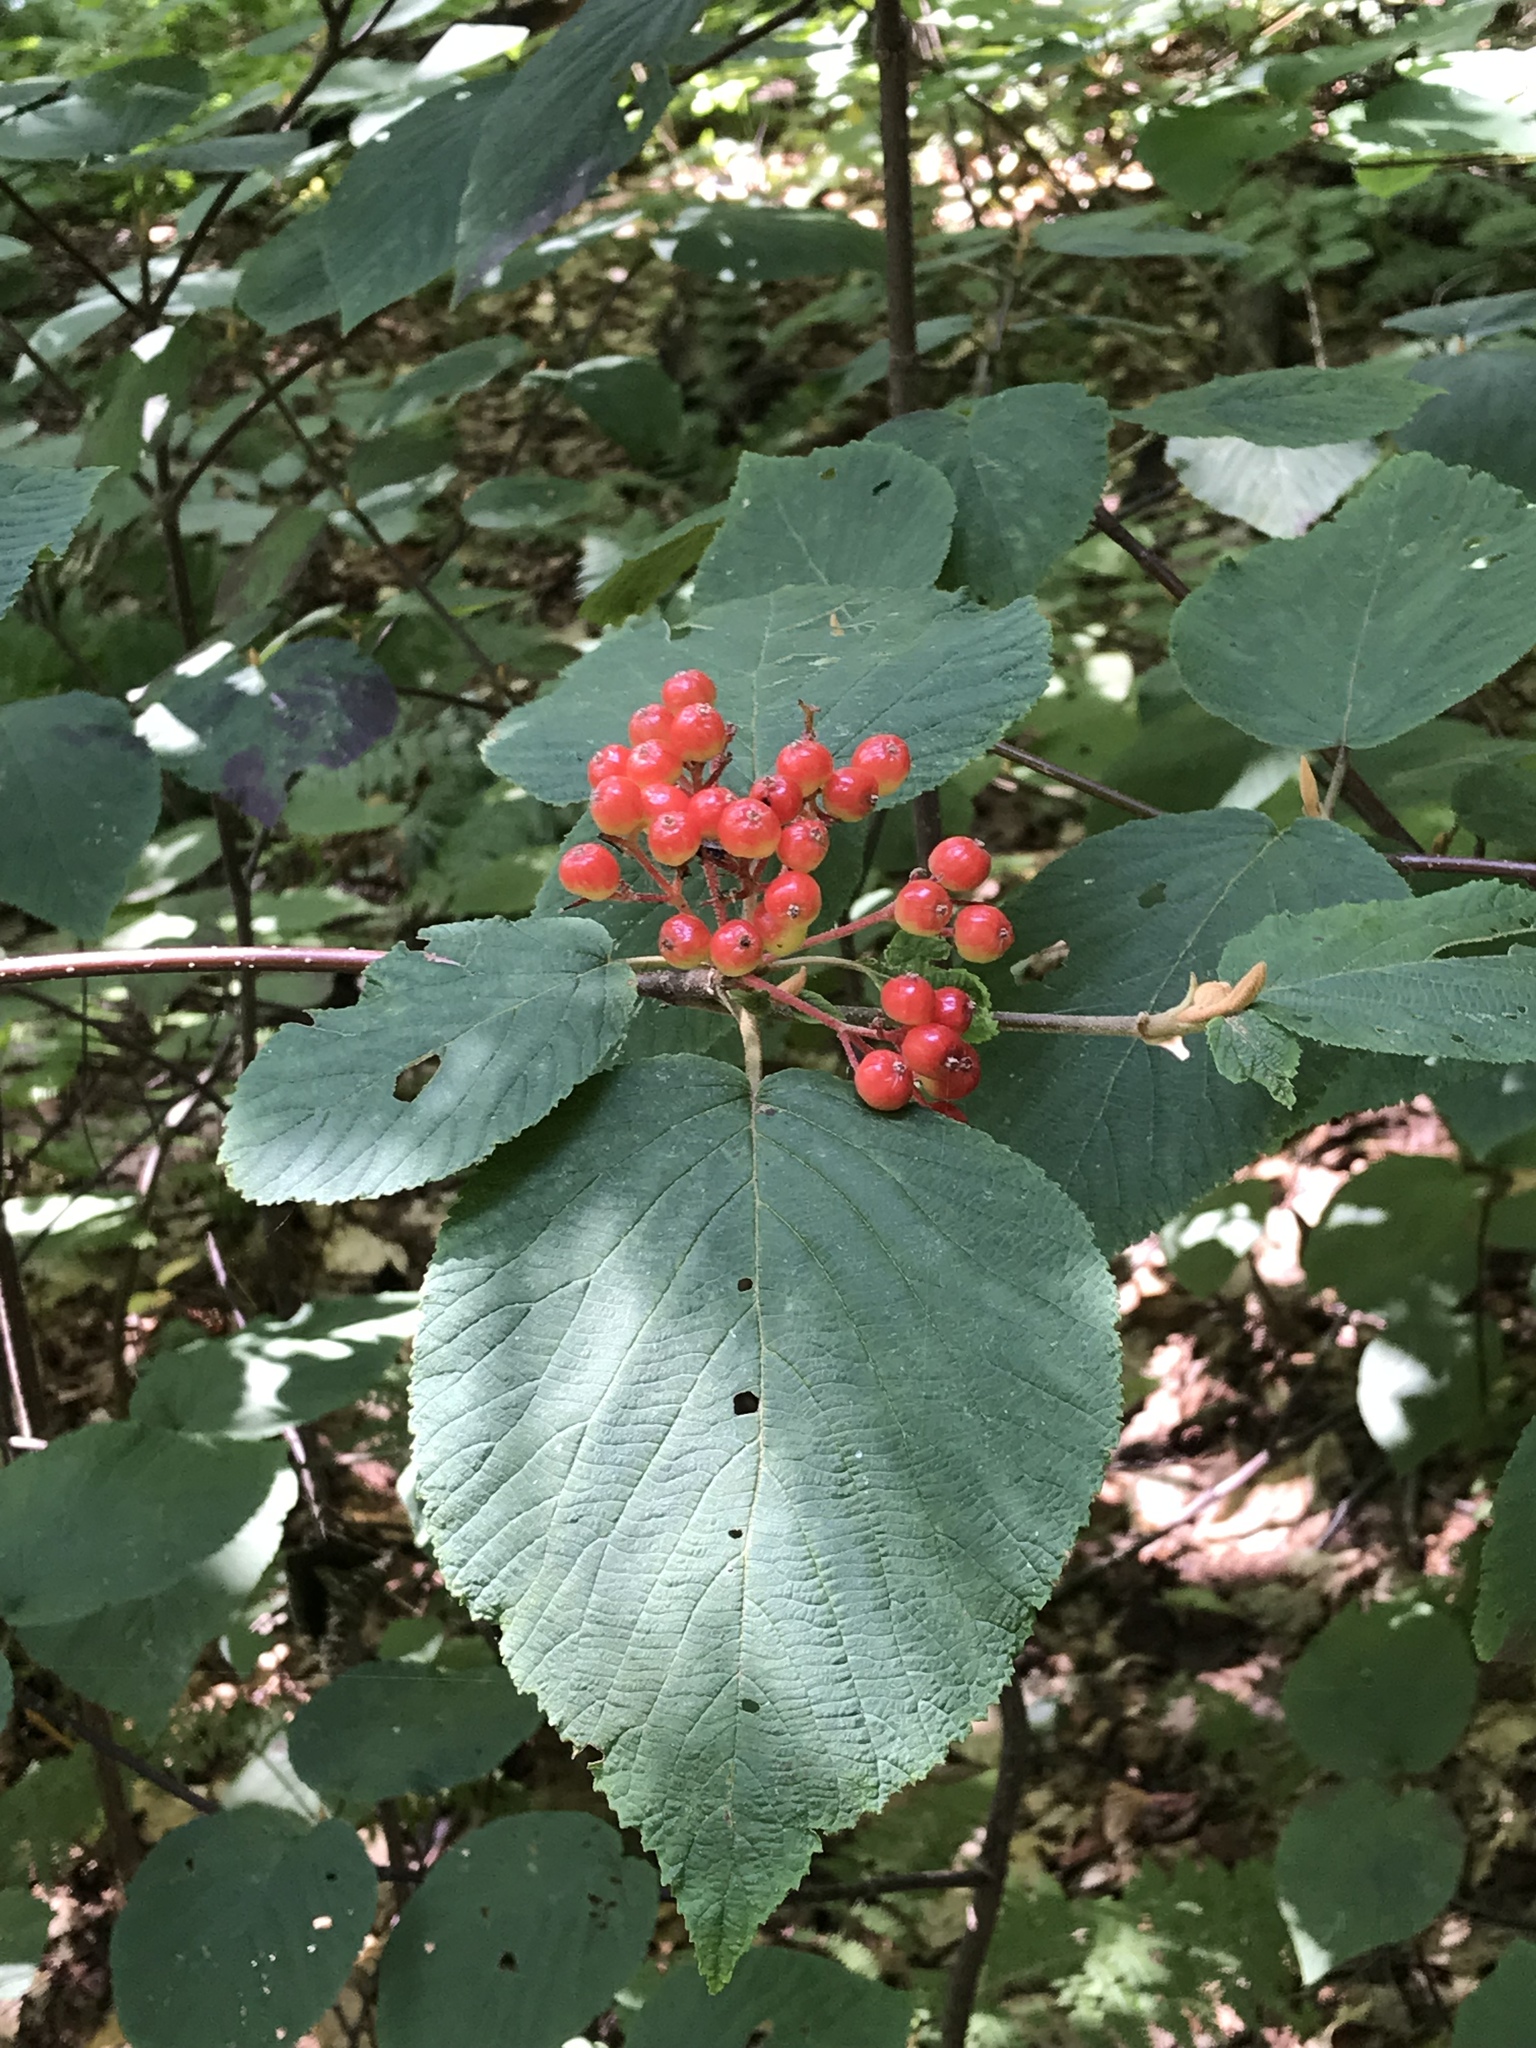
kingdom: Plantae
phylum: Tracheophyta
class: Magnoliopsida
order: Dipsacales
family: Viburnaceae
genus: Viburnum
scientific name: Viburnum lantanoides
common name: Hobblebush
